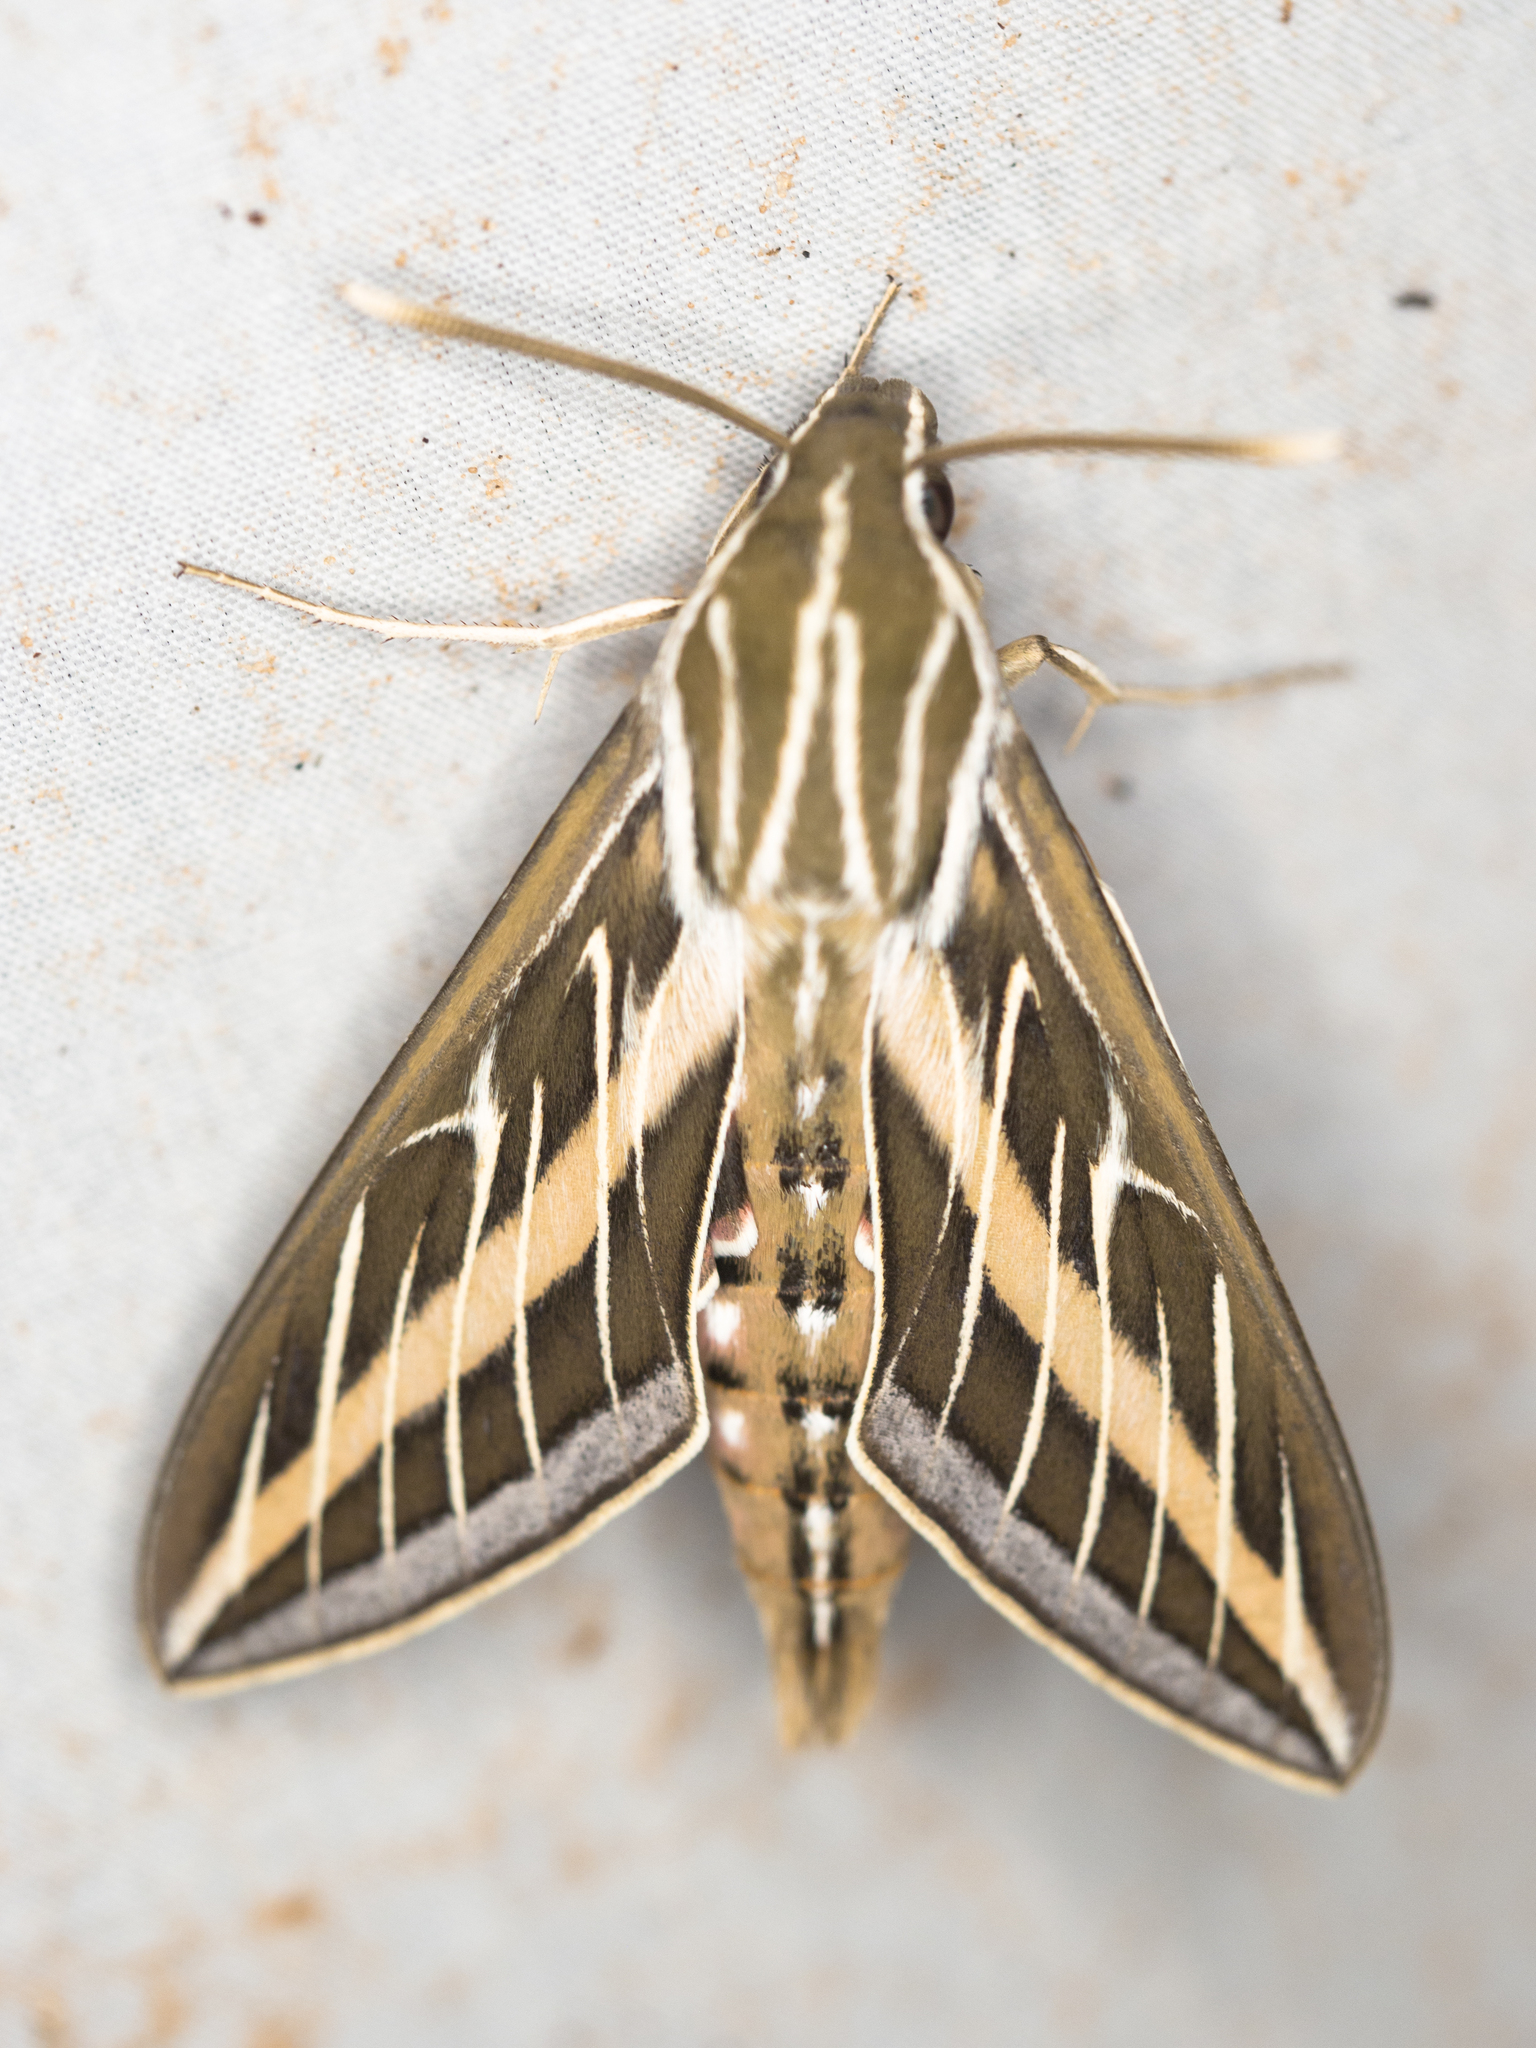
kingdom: Animalia
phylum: Arthropoda
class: Insecta
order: Lepidoptera
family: Sphingidae
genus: Hyles
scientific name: Hyles lineata
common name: White-lined sphinx
